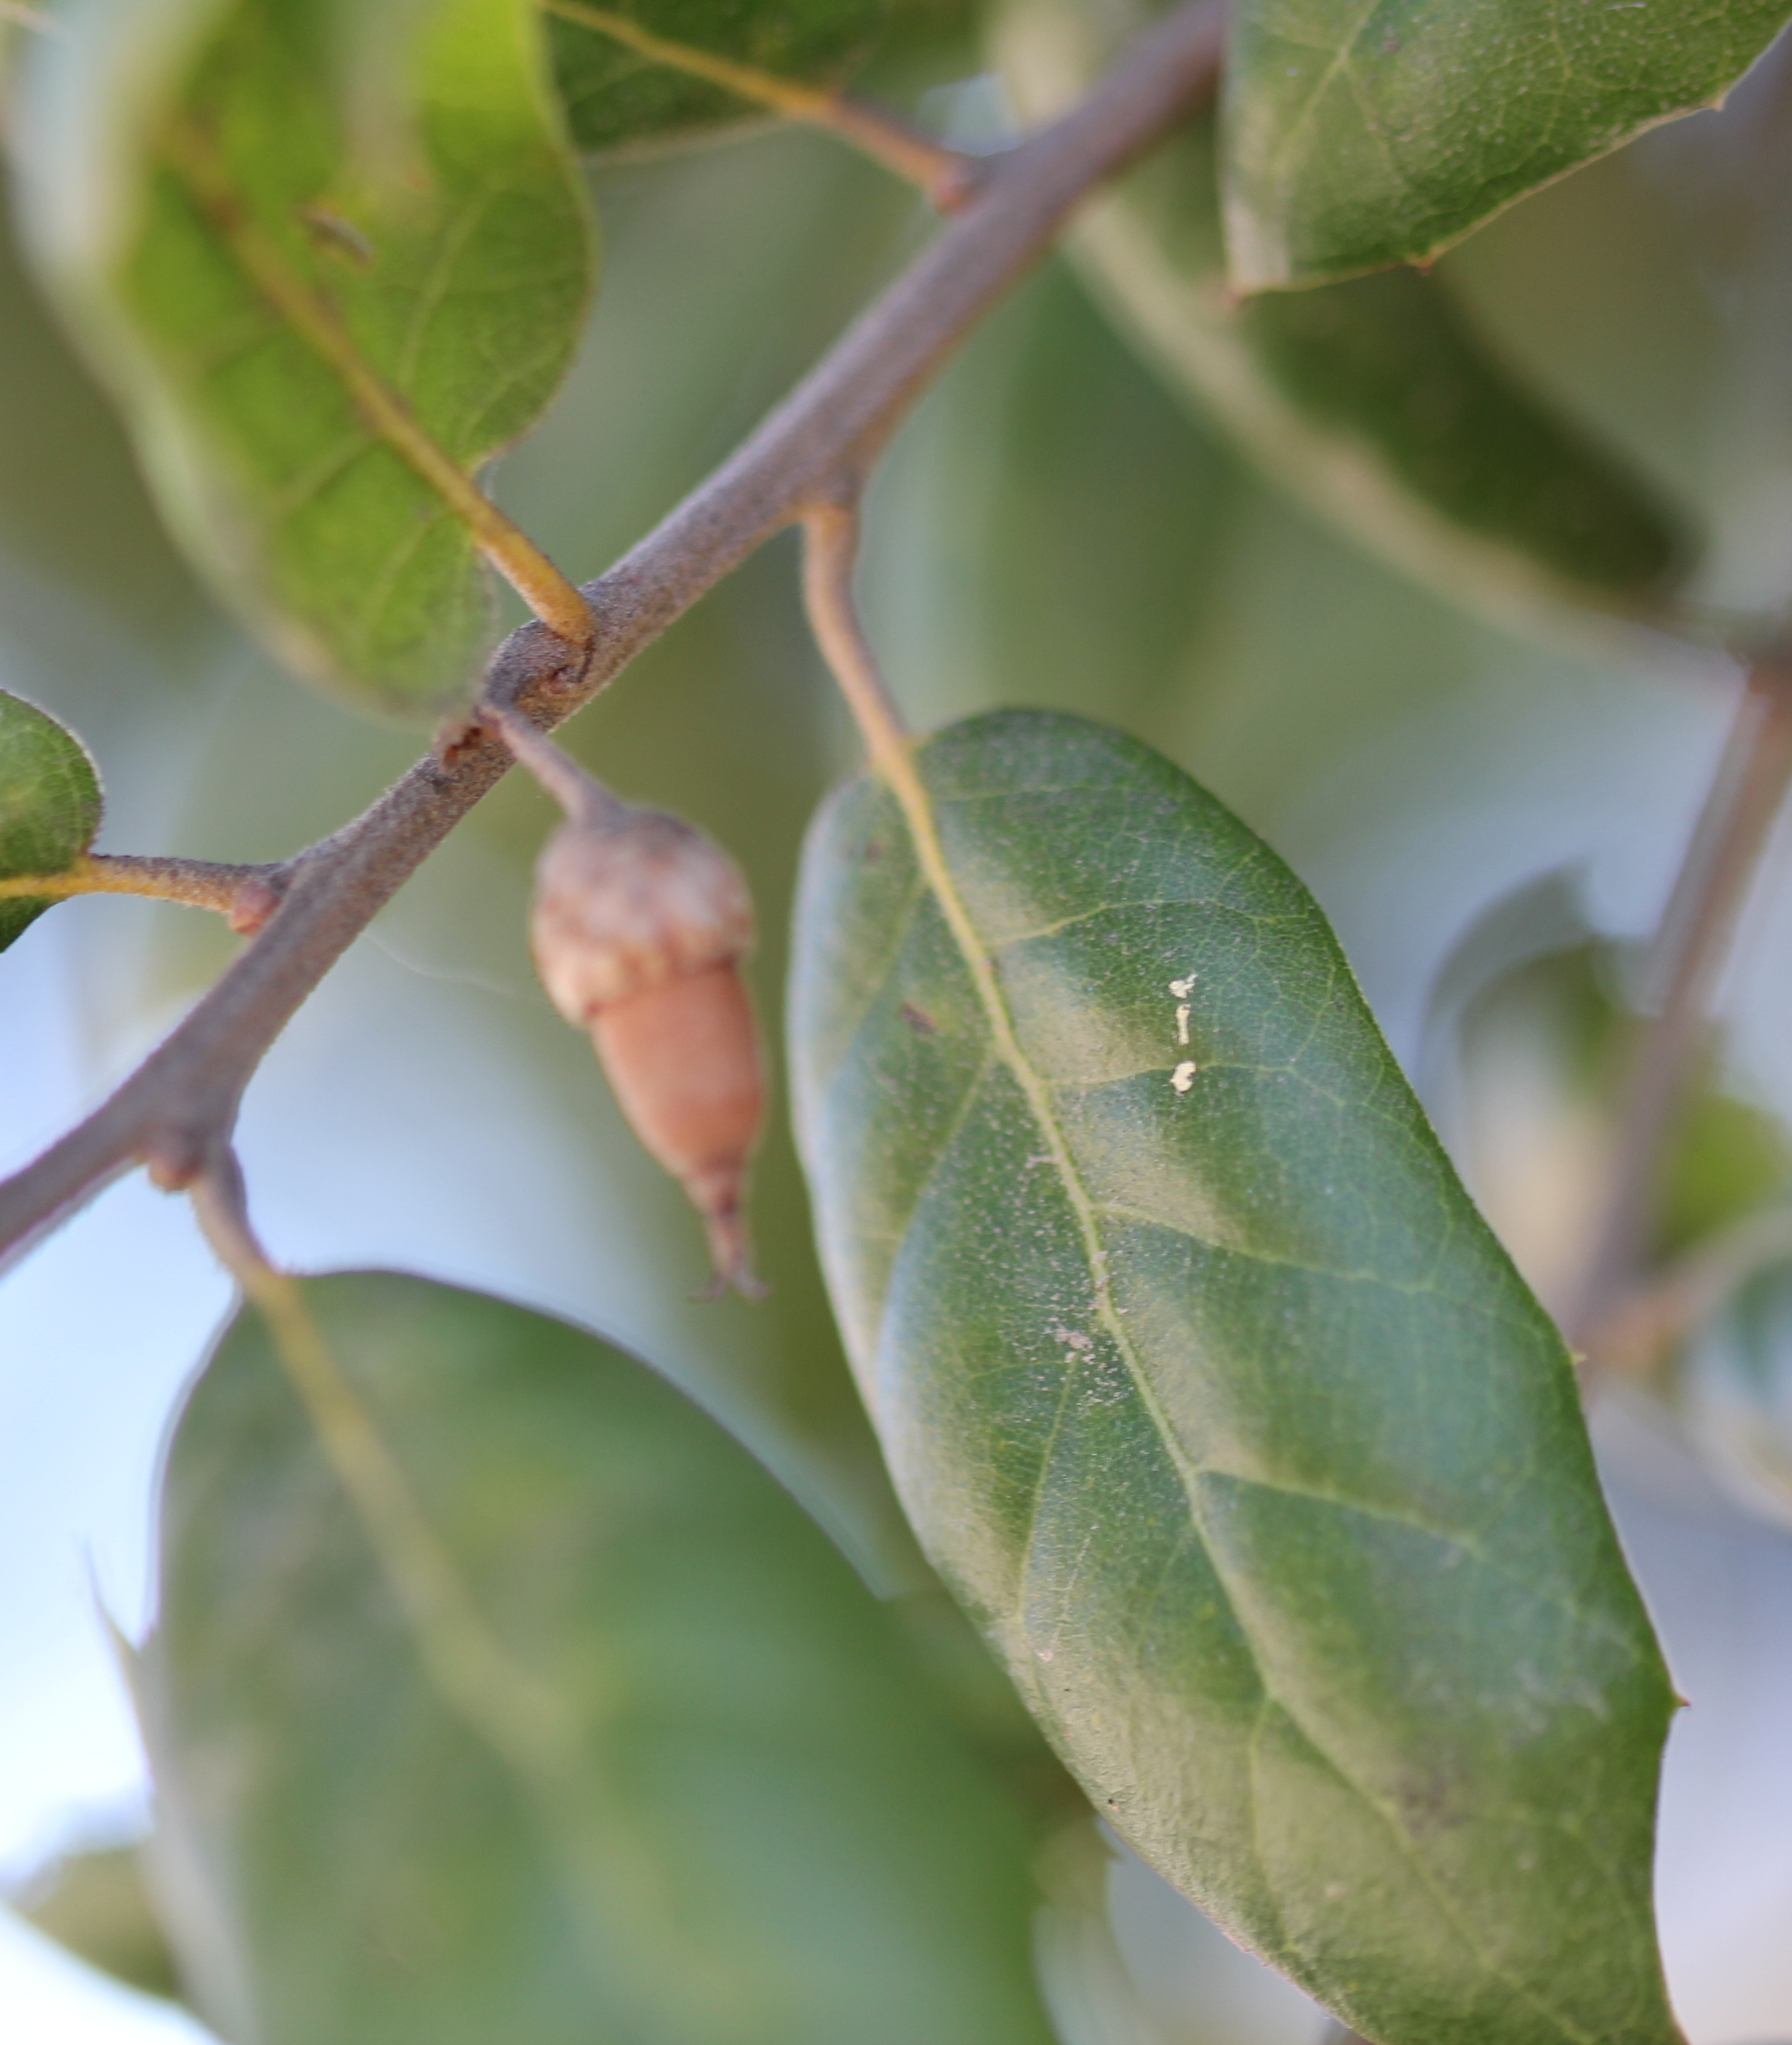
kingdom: Plantae
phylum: Tracheophyta
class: Magnoliopsida
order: Fagales
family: Fagaceae
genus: Quercus
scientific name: Quercus agrifolia
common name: California live oak
